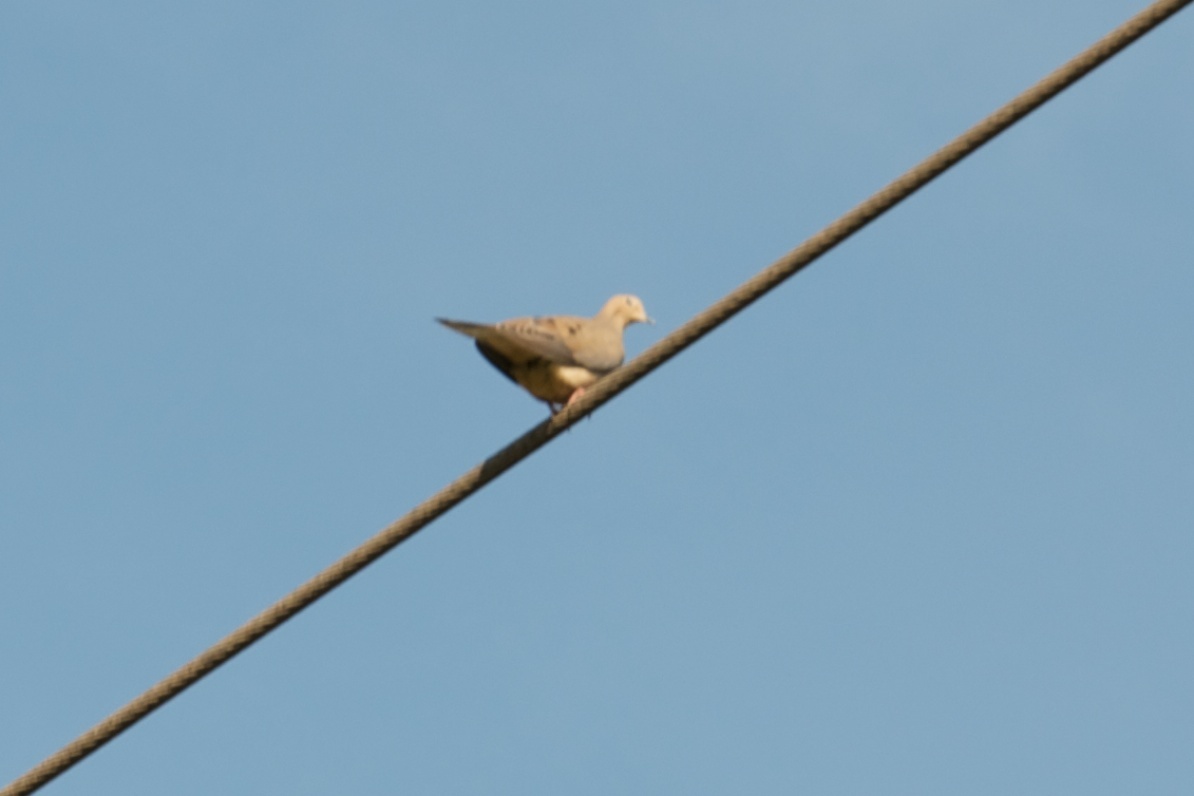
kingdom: Animalia
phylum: Chordata
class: Aves
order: Columbiformes
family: Columbidae
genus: Zenaida
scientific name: Zenaida macroura
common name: Mourning dove
